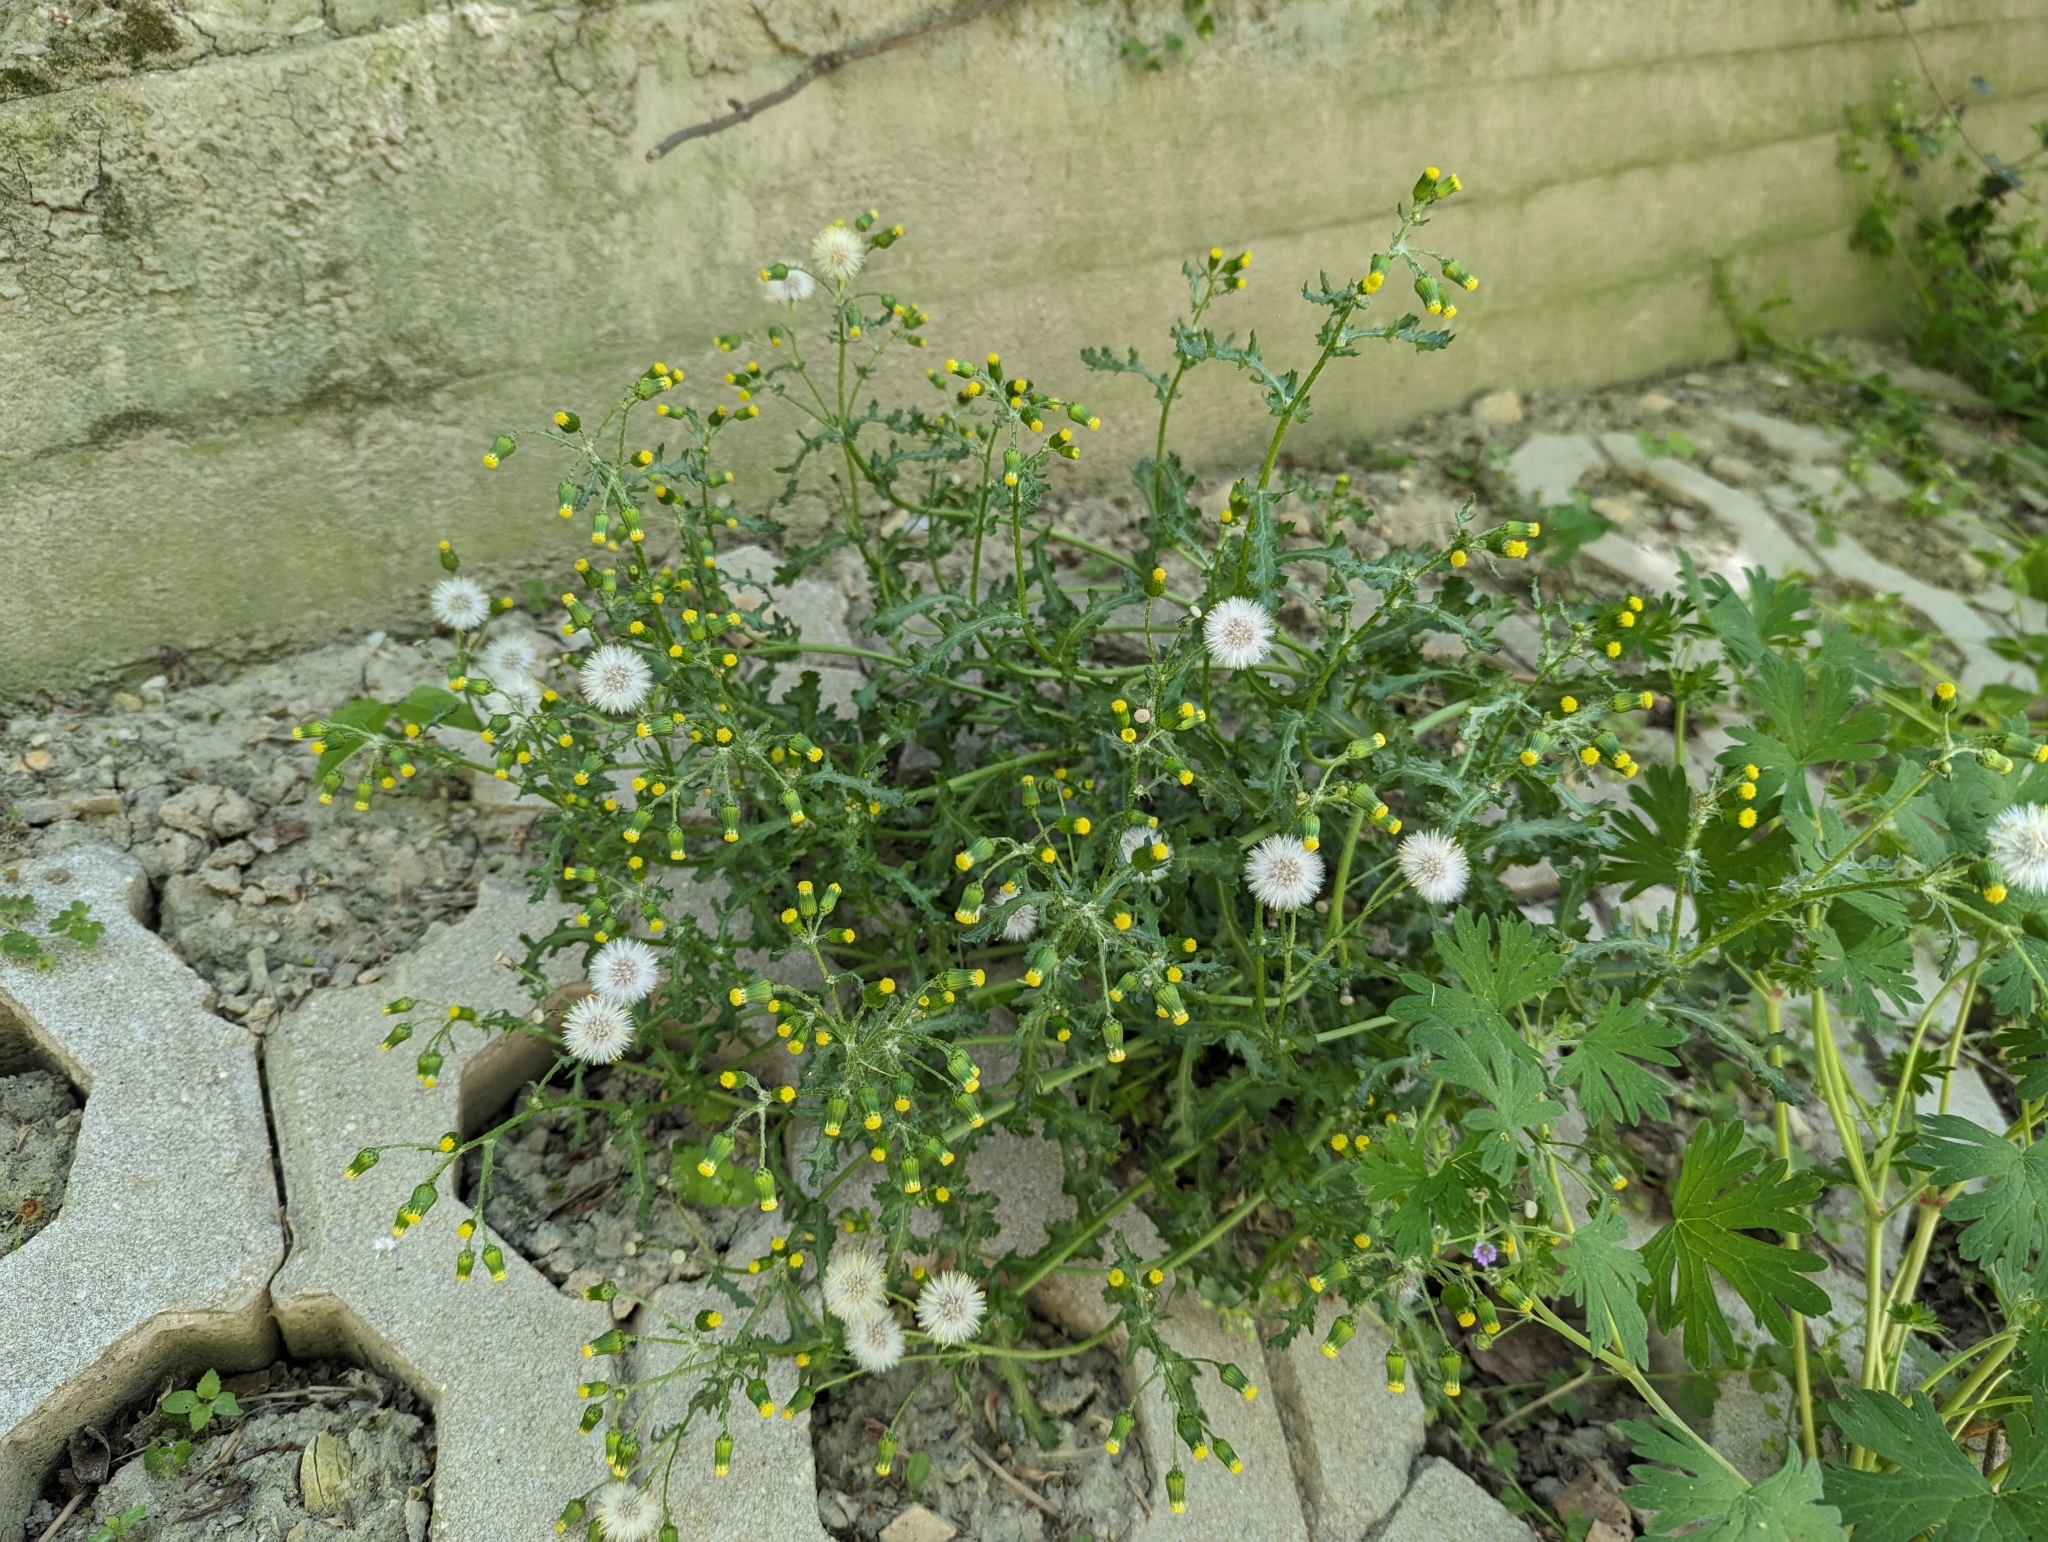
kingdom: Plantae
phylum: Tracheophyta
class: Magnoliopsida
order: Asterales
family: Asteraceae
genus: Senecio
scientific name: Senecio vulgaris
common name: Old-man-in-the-spring
